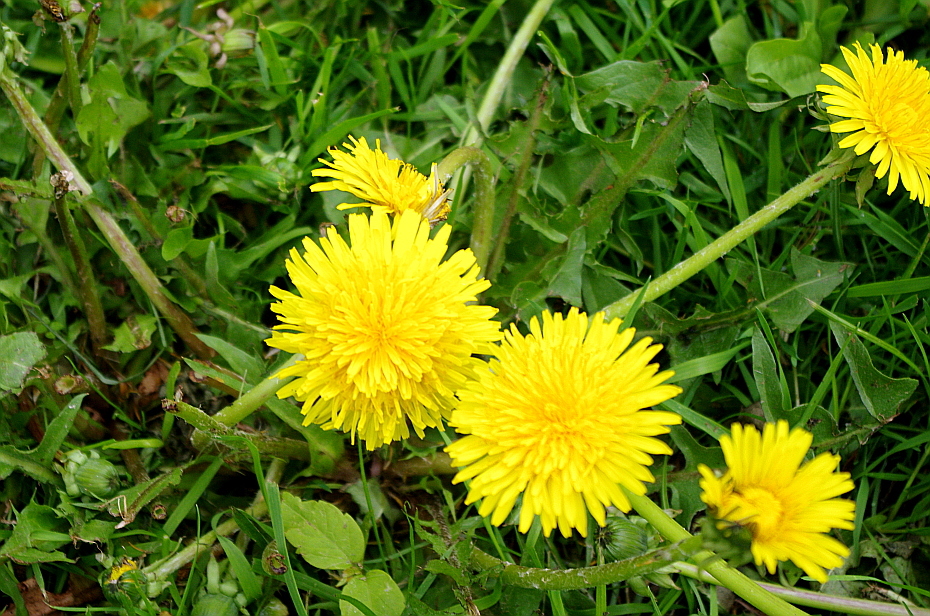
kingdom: Plantae
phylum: Tracheophyta
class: Magnoliopsida
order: Asterales
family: Asteraceae
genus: Taraxacum
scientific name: Taraxacum officinale
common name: Common dandelion
